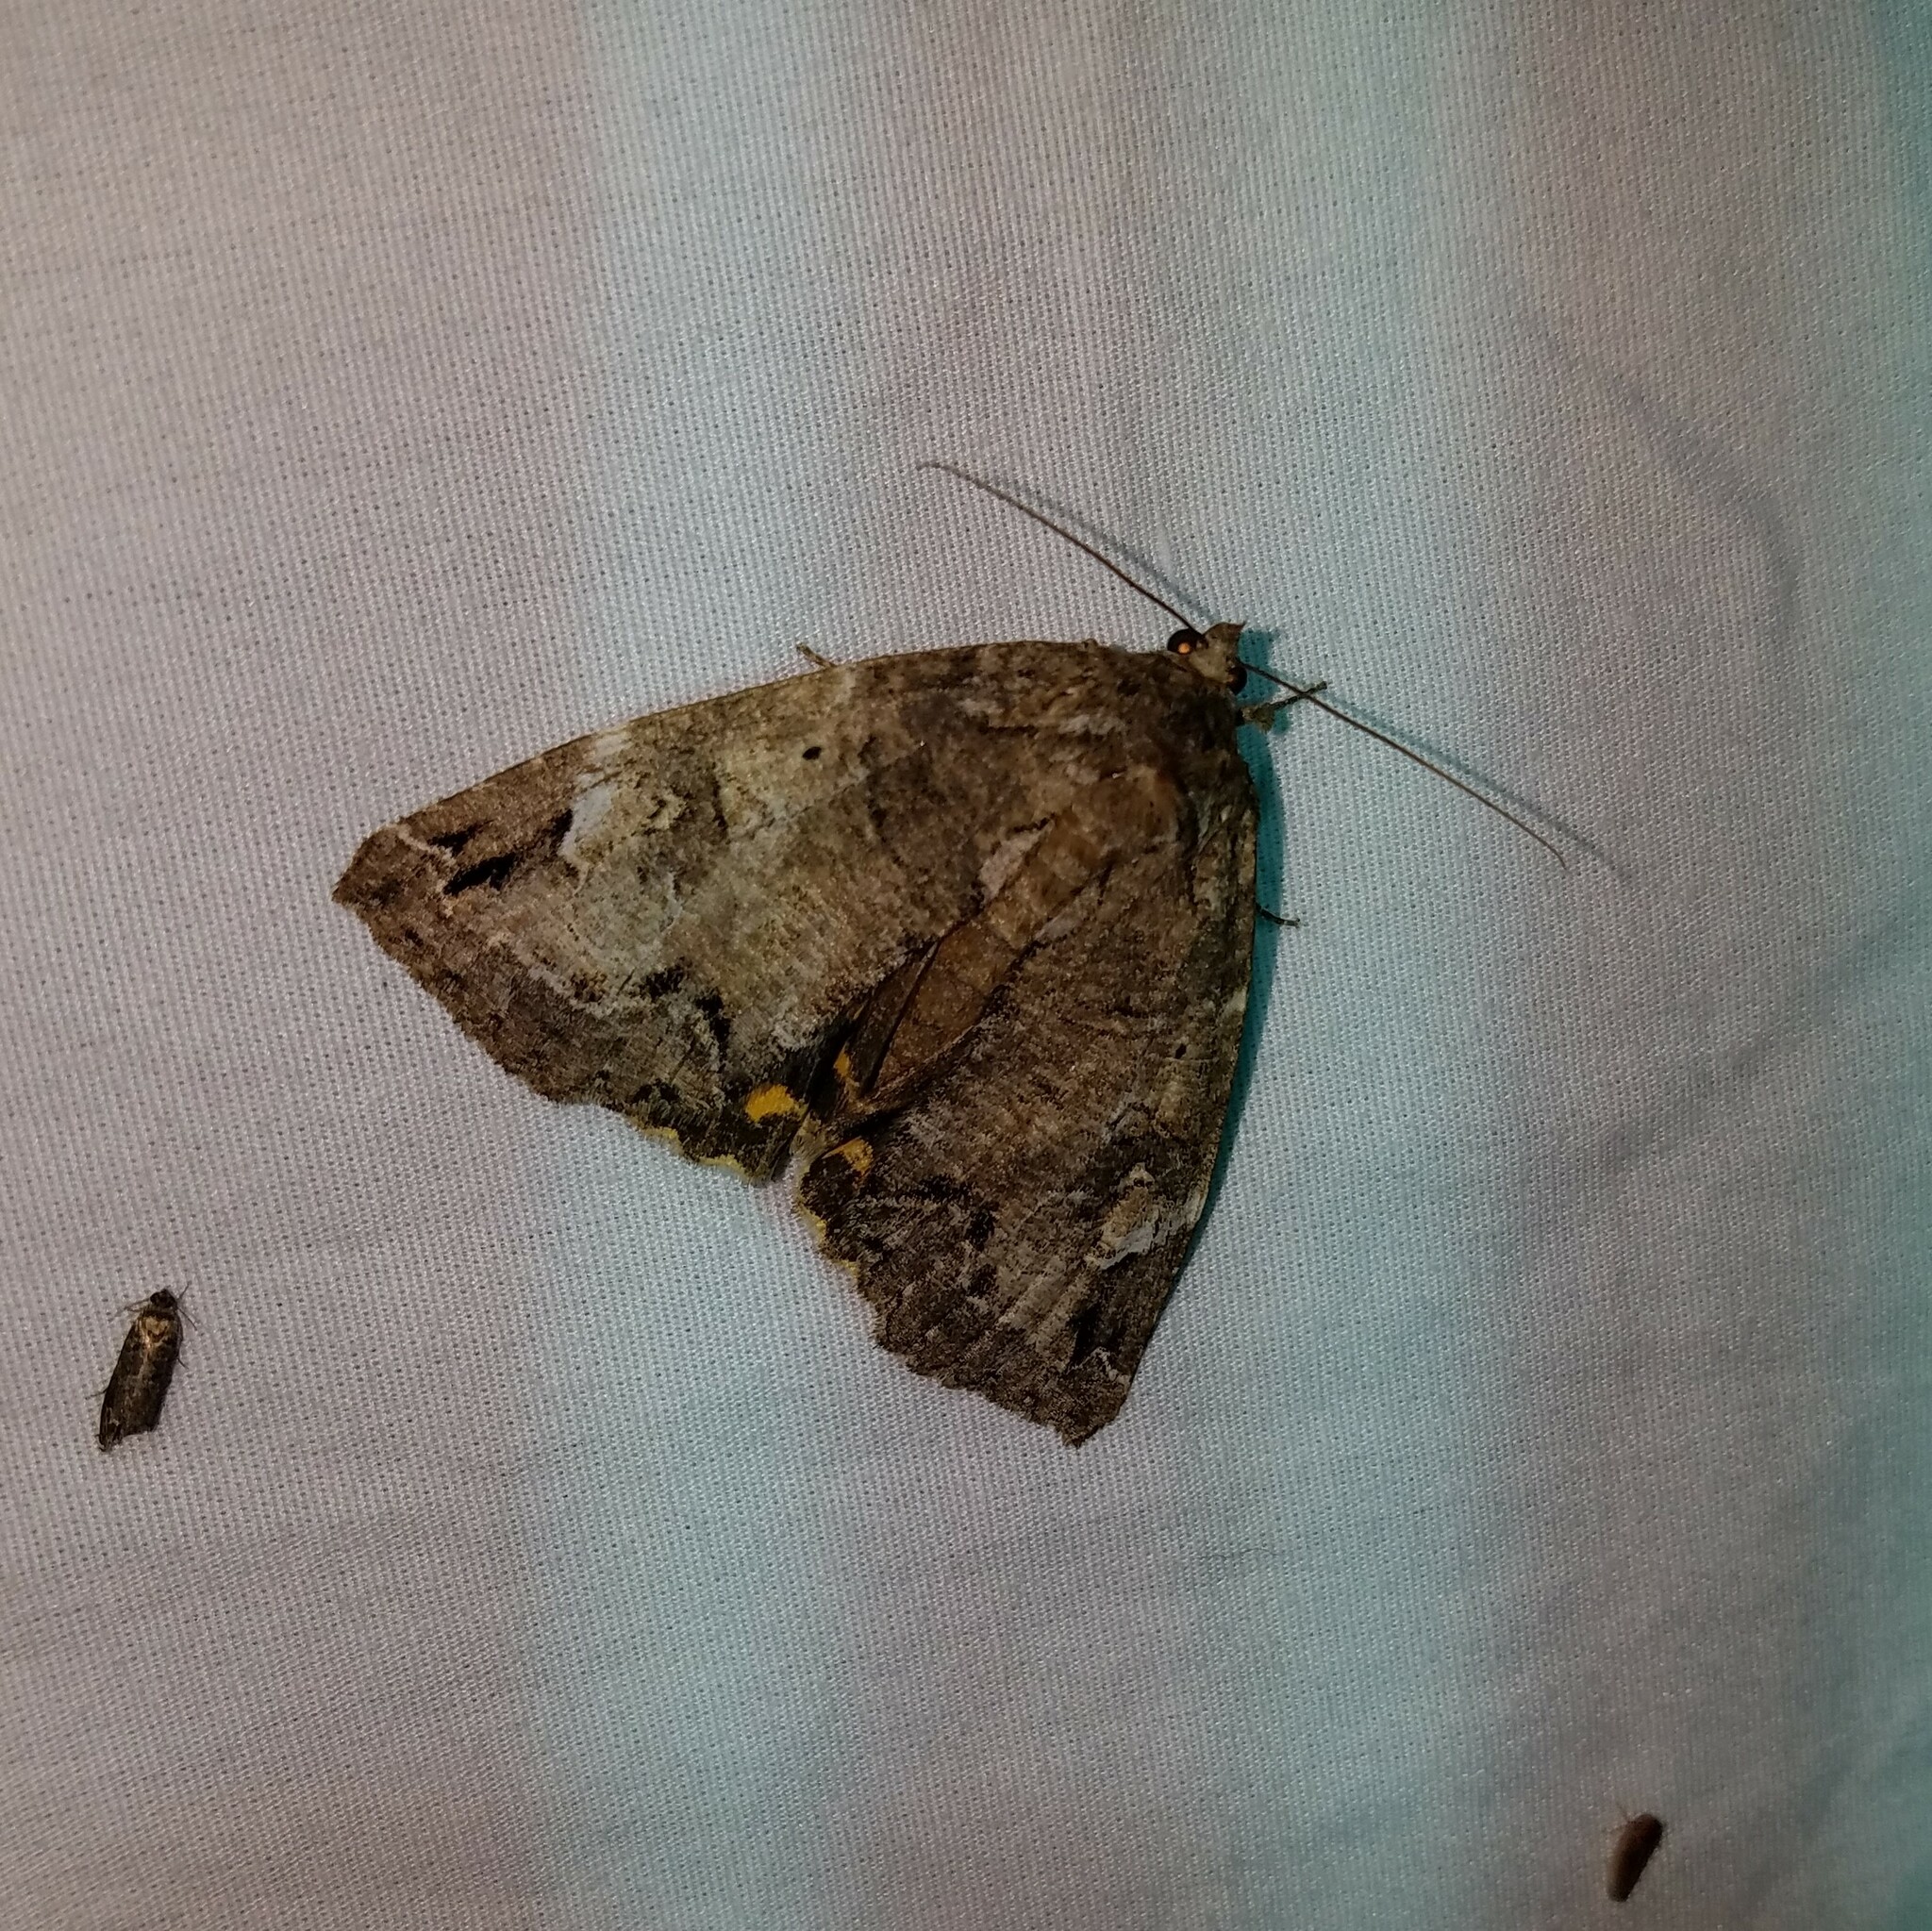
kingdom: Animalia
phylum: Arthropoda
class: Insecta
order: Lepidoptera
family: Erebidae
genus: Euparthenos
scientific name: Euparthenos nubilis
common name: Locust underwing
